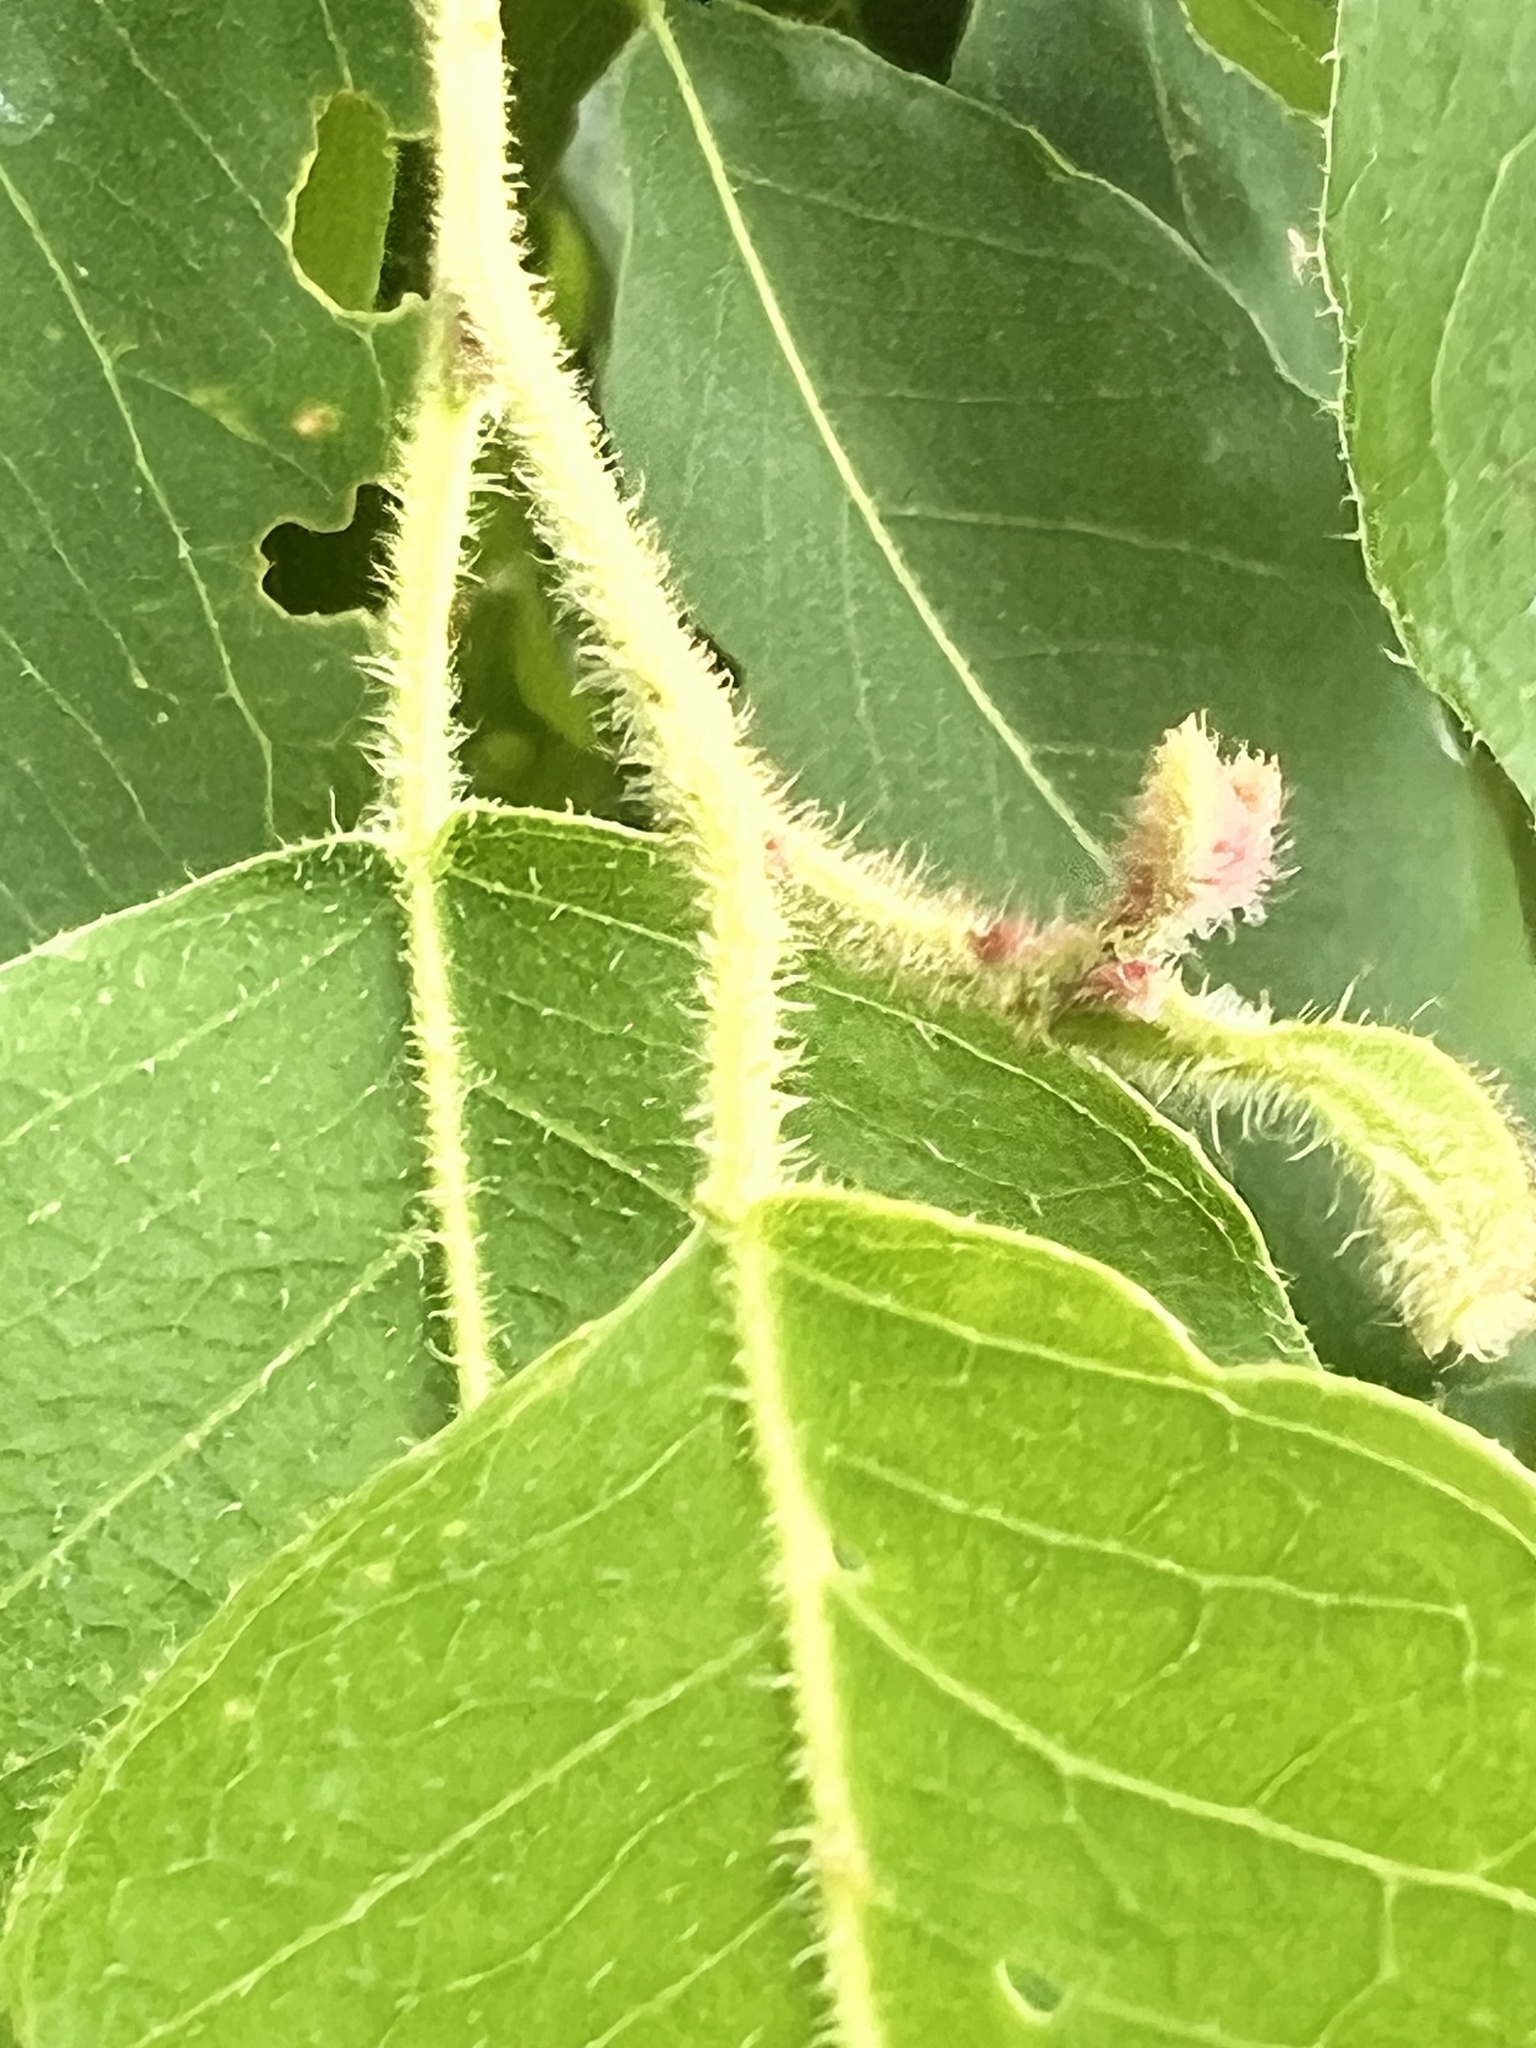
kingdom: Plantae
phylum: Tracheophyta
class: Magnoliopsida
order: Myrtales
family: Myrtaceae
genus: Corymbia
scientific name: Corymbia torelliana
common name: Cadaghi
